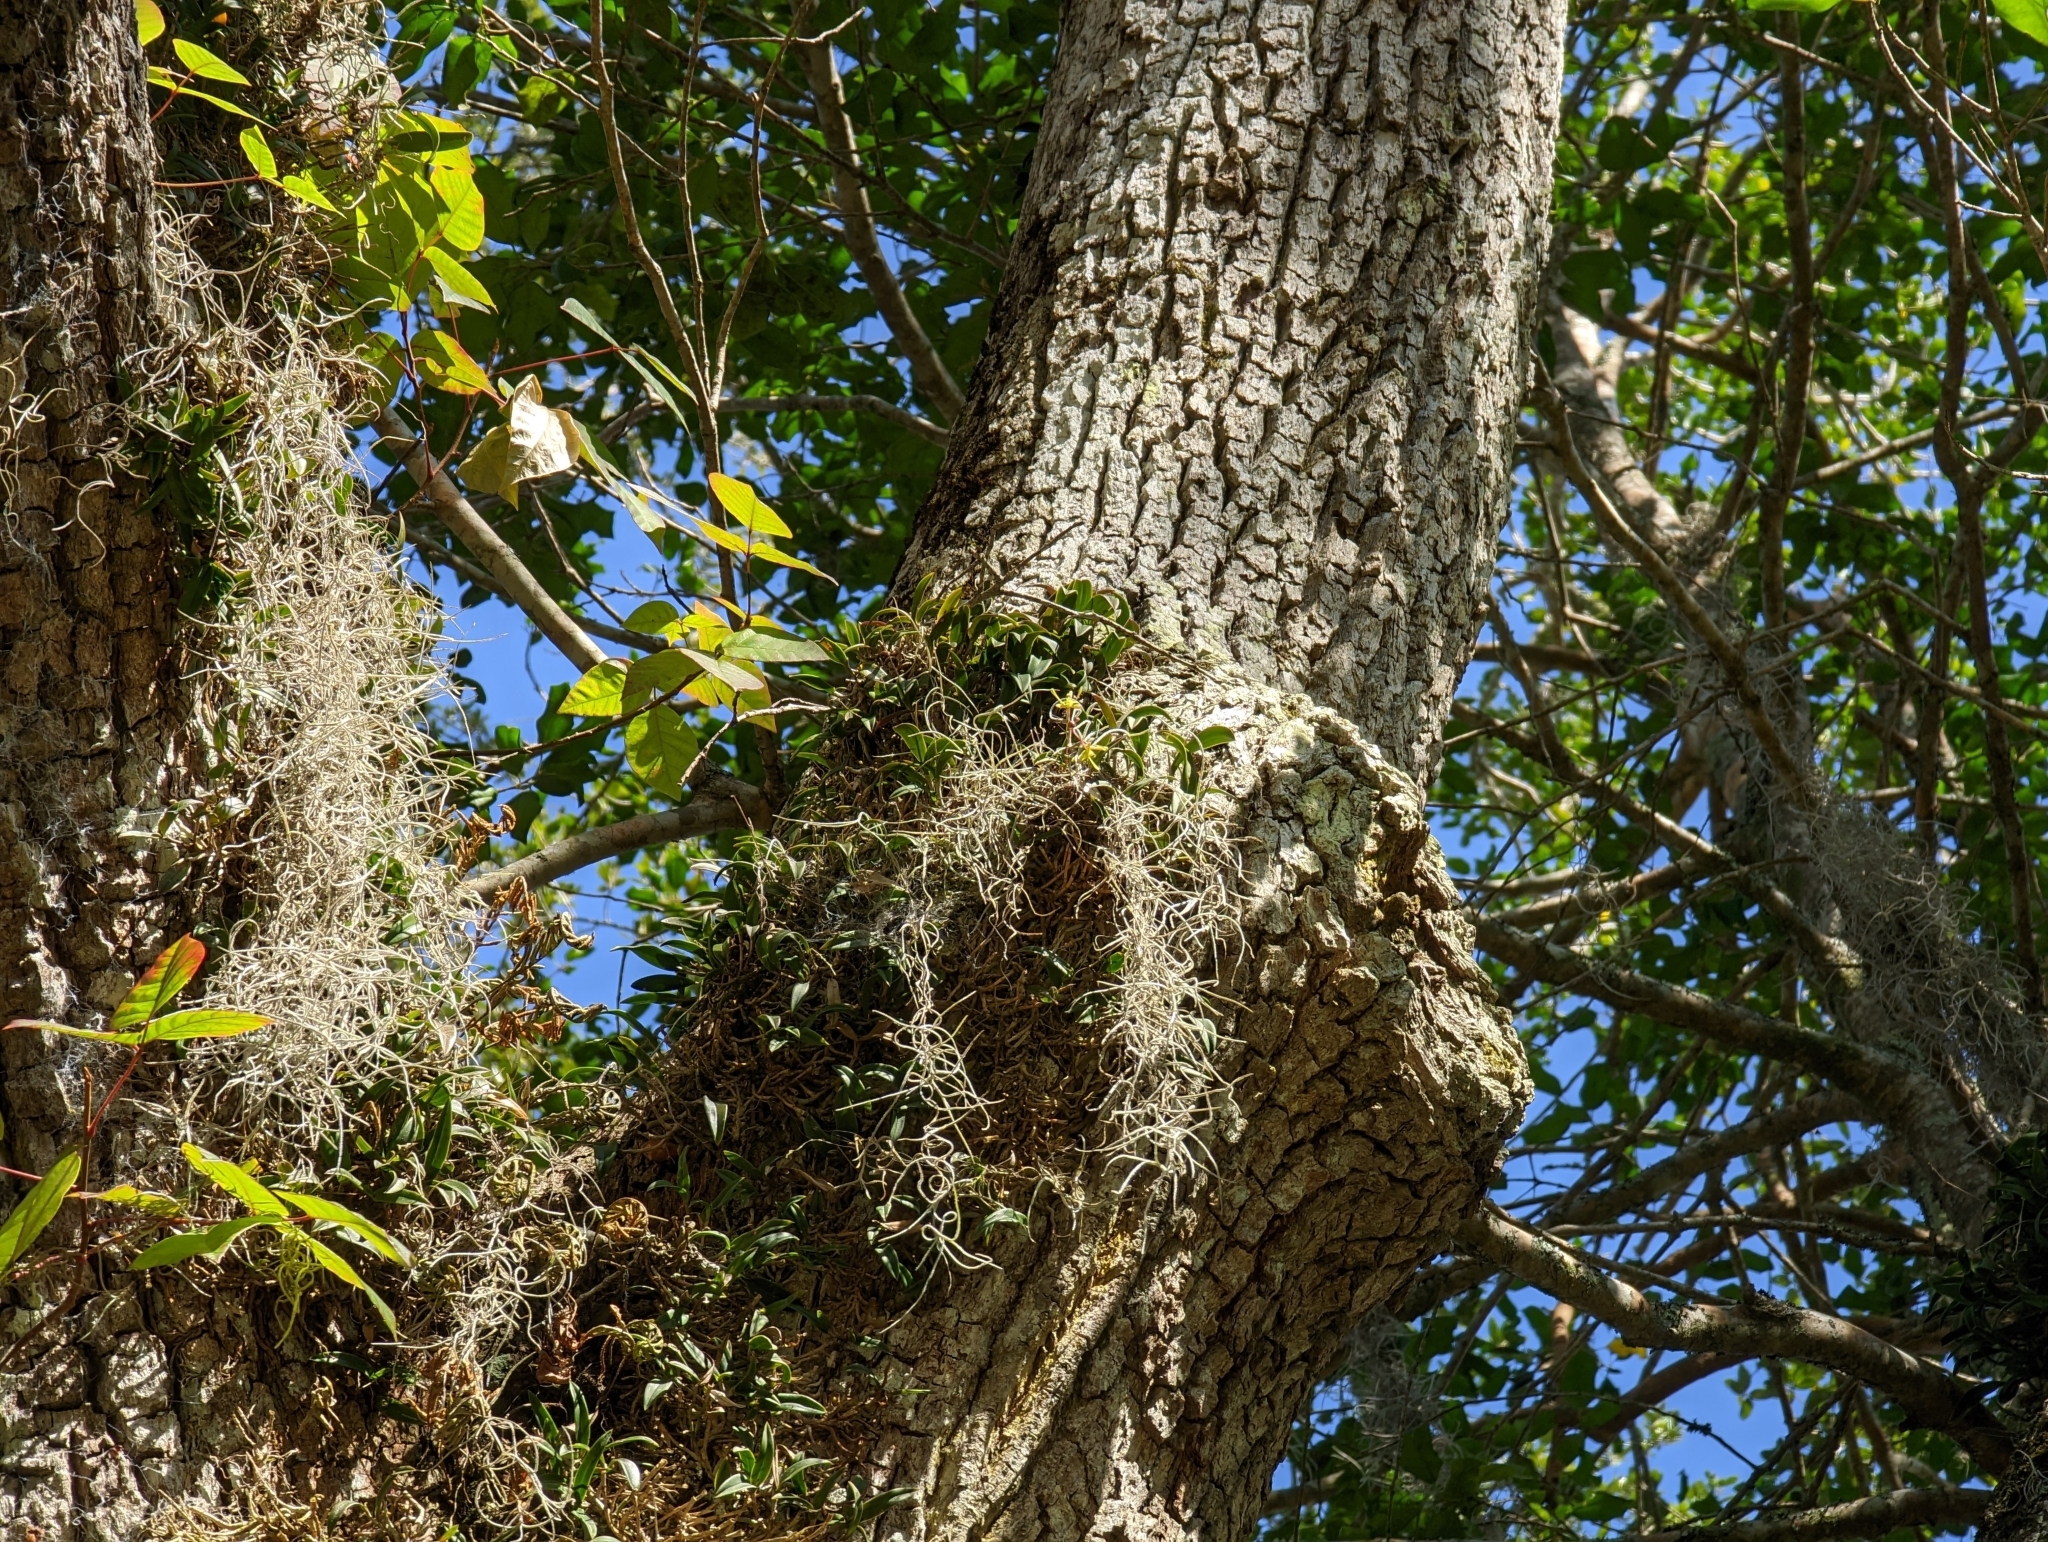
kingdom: Plantae
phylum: Tracheophyta
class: Liliopsida
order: Asparagales
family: Orchidaceae
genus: Epidendrum
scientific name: Epidendrum conopseum
